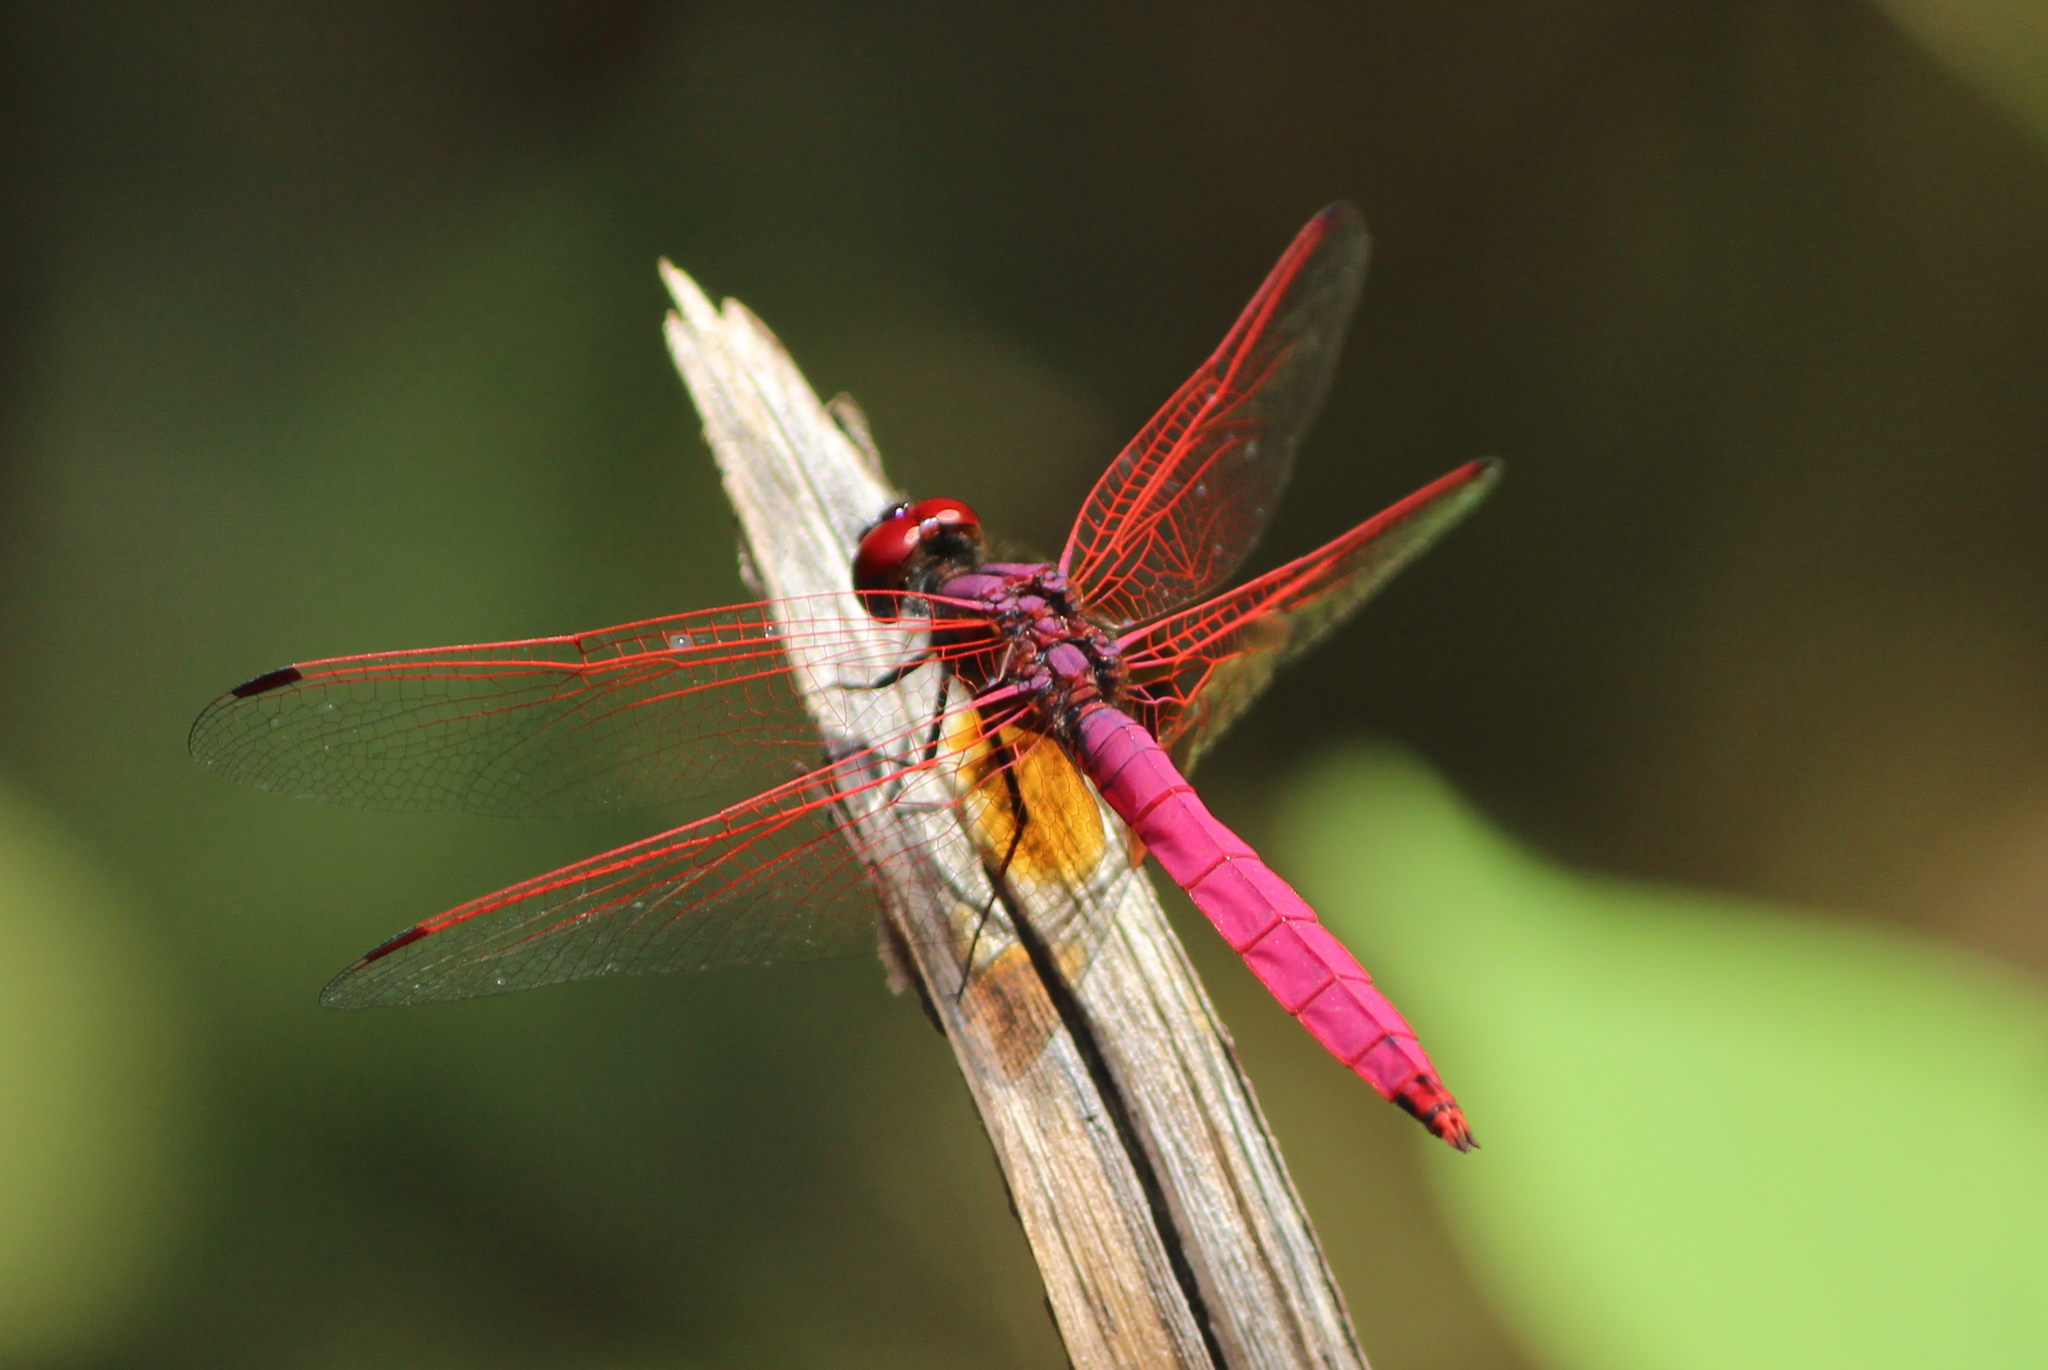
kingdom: Animalia
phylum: Arthropoda
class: Insecta
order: Odonata
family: Libellulidae
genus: Trithemis
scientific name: Trithemis aurora
